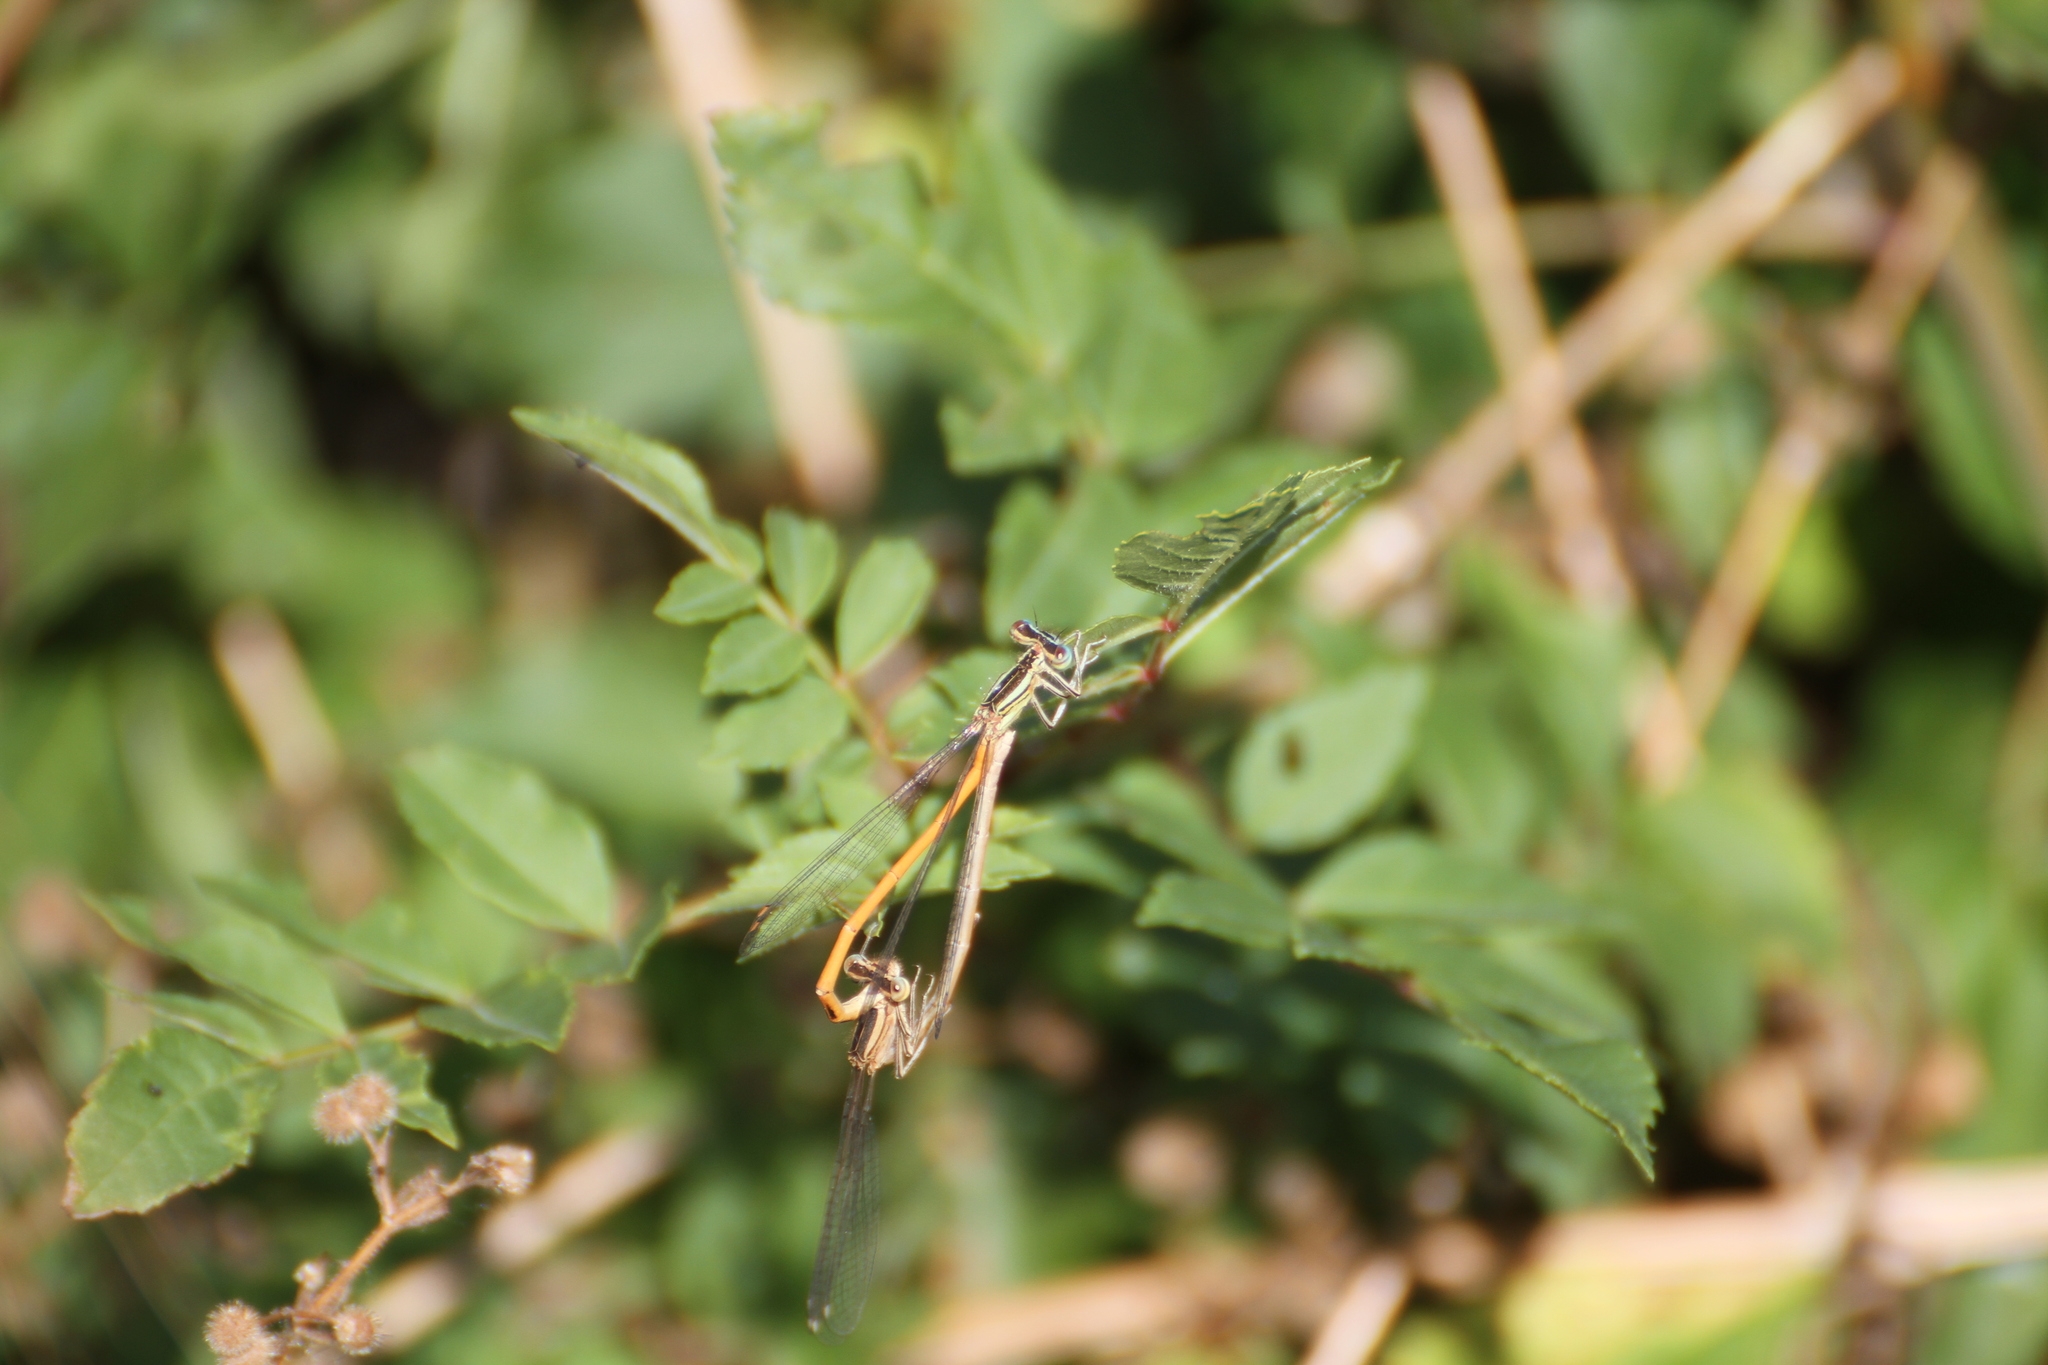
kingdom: Animalia
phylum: Arthropoda
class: Insecta
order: Odonata
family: Platycnemididae
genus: Platycnemis
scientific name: Platycnemis acutipennis
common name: Orange featherleg
